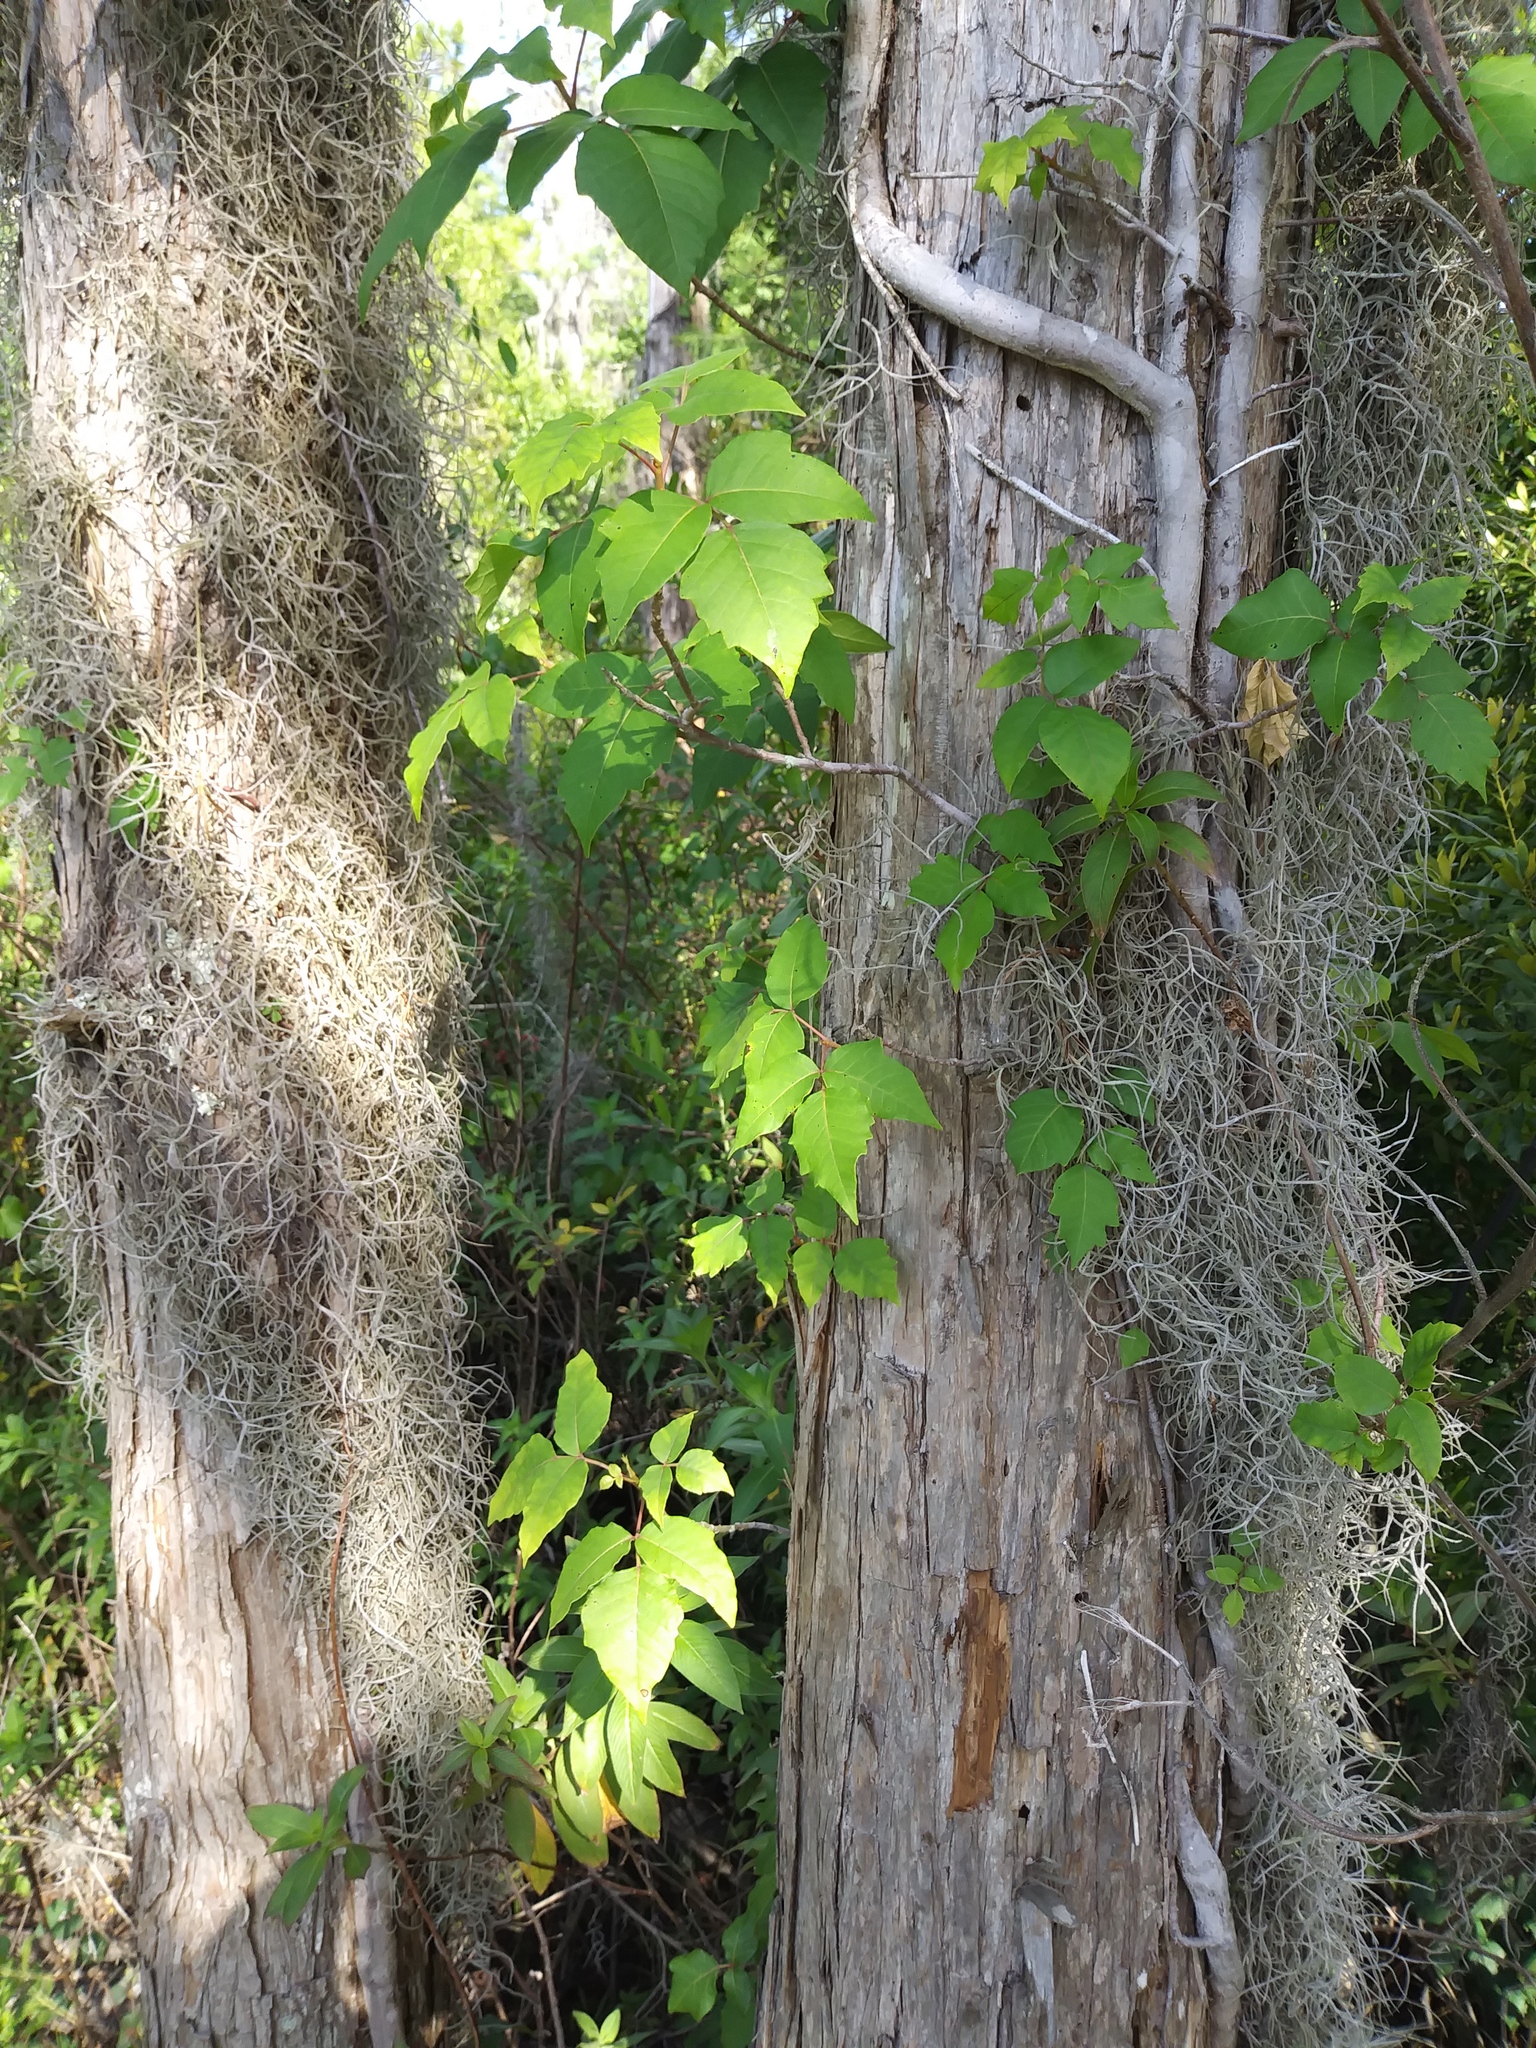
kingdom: Plantae
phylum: Tracheophyta
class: Magnoliopsida
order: Sapindales
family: Anacardiaceae
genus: Toxicodendron
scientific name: Toxicodendron radicans
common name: Poison ivy
